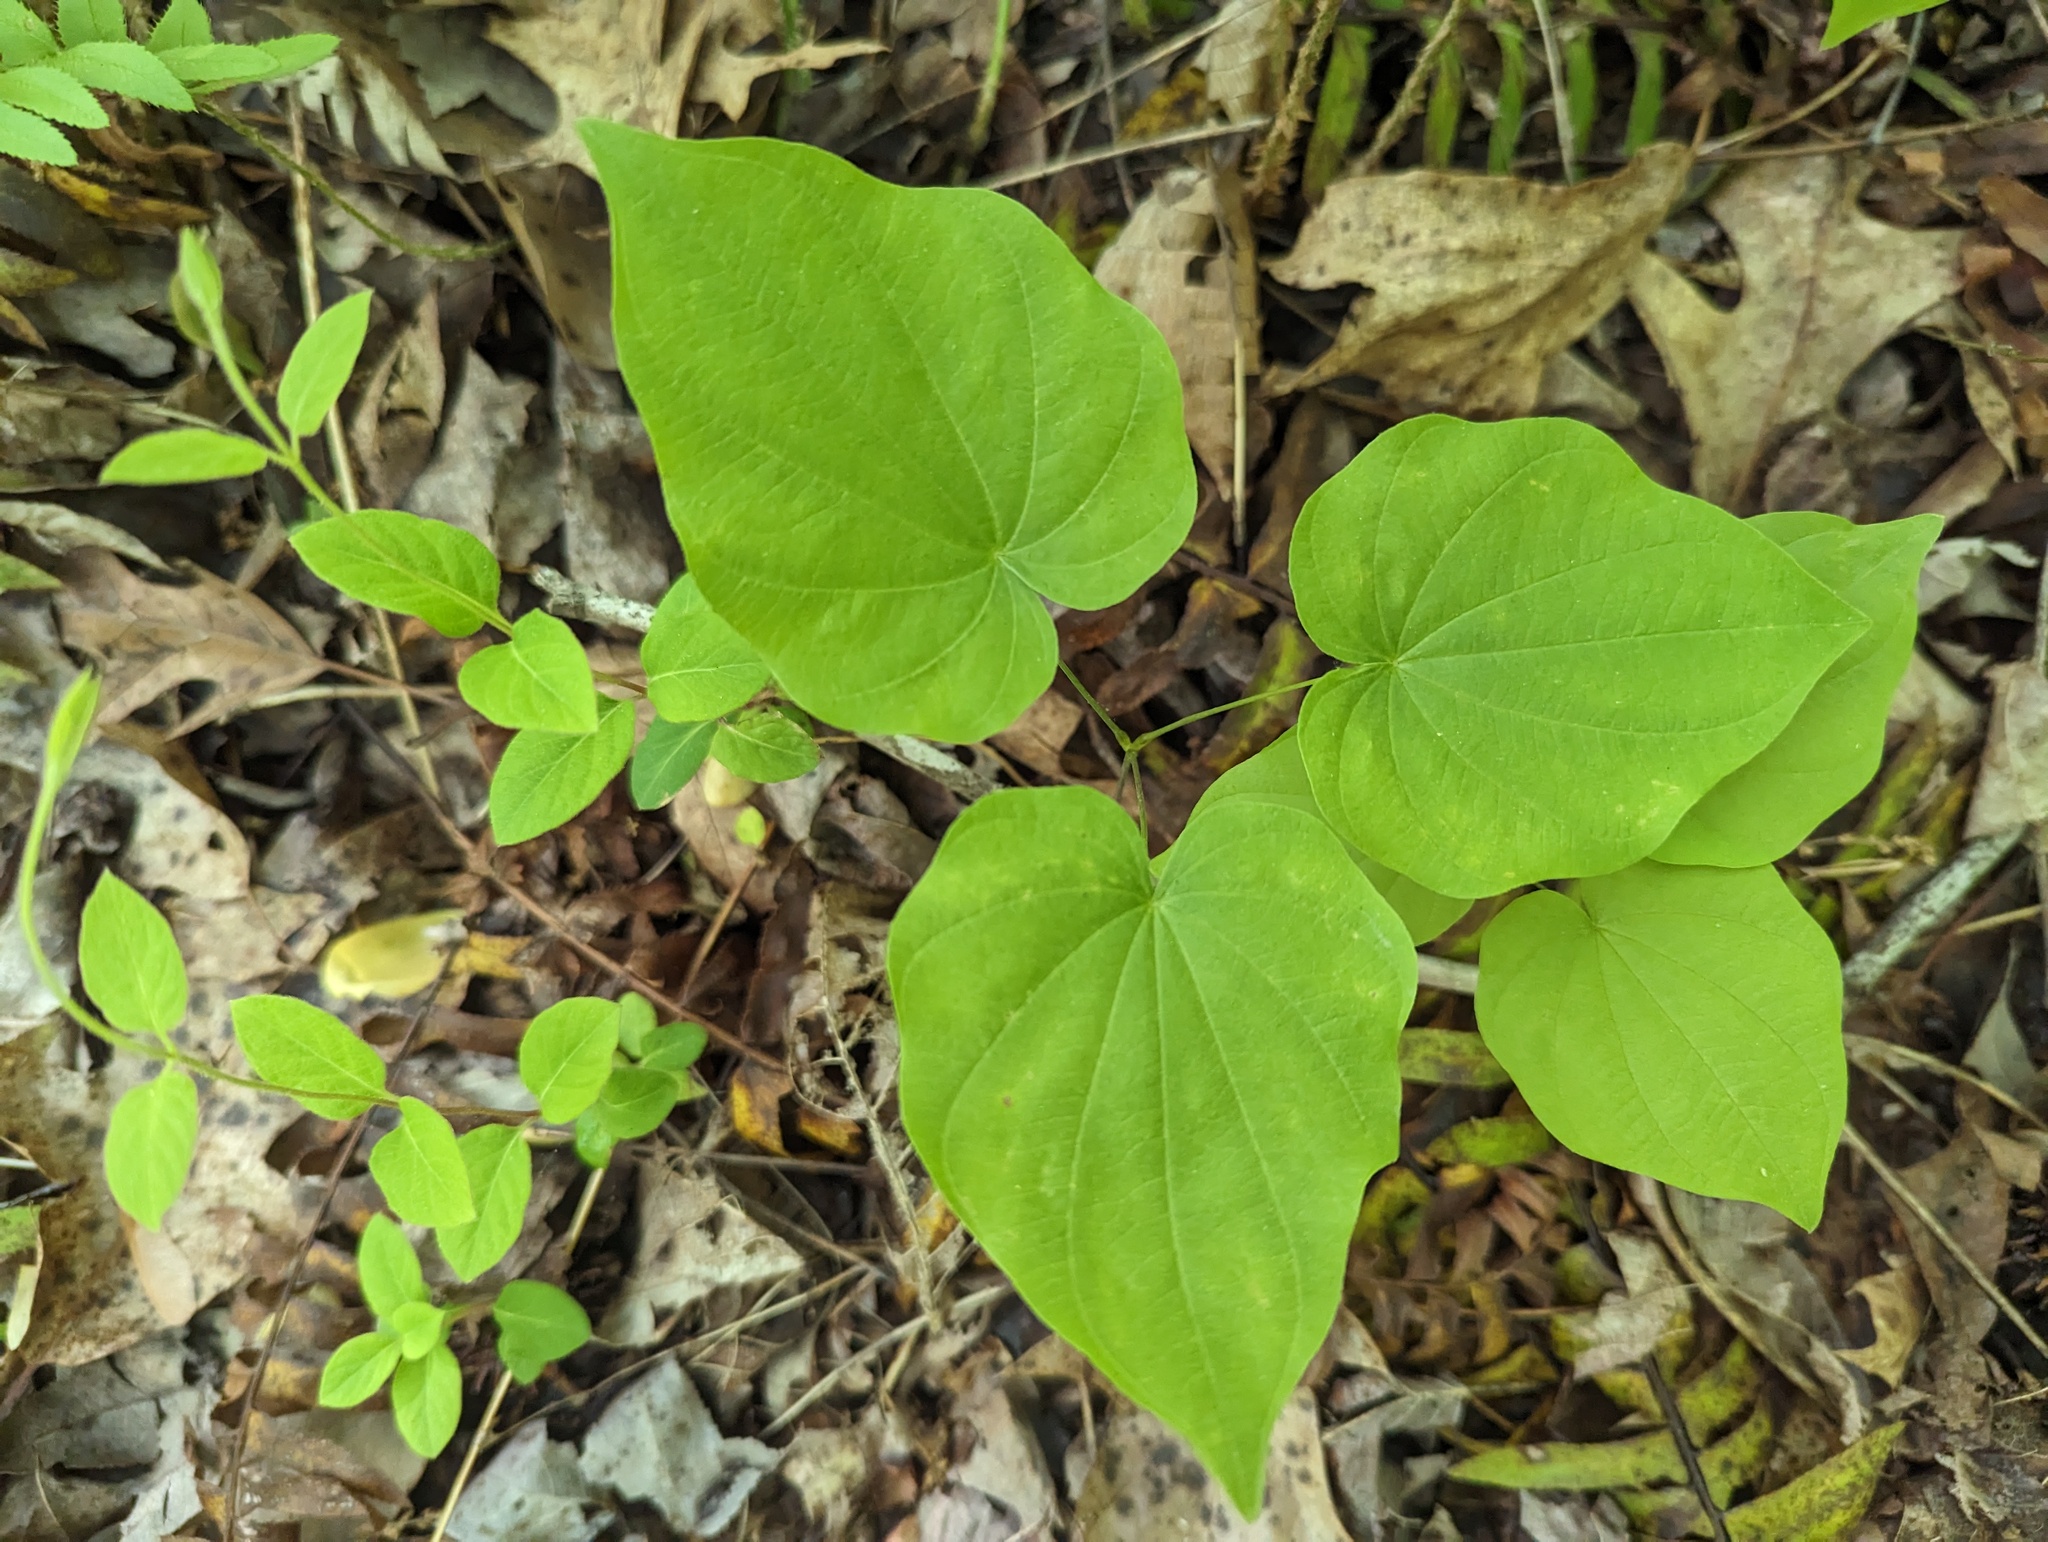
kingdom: Plantae
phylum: Tracheophyta
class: Liliopsida
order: Dioscoreales
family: Dioscoreaceae
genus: Dioscorea
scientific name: Dioscorea villosa
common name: Wild yam
